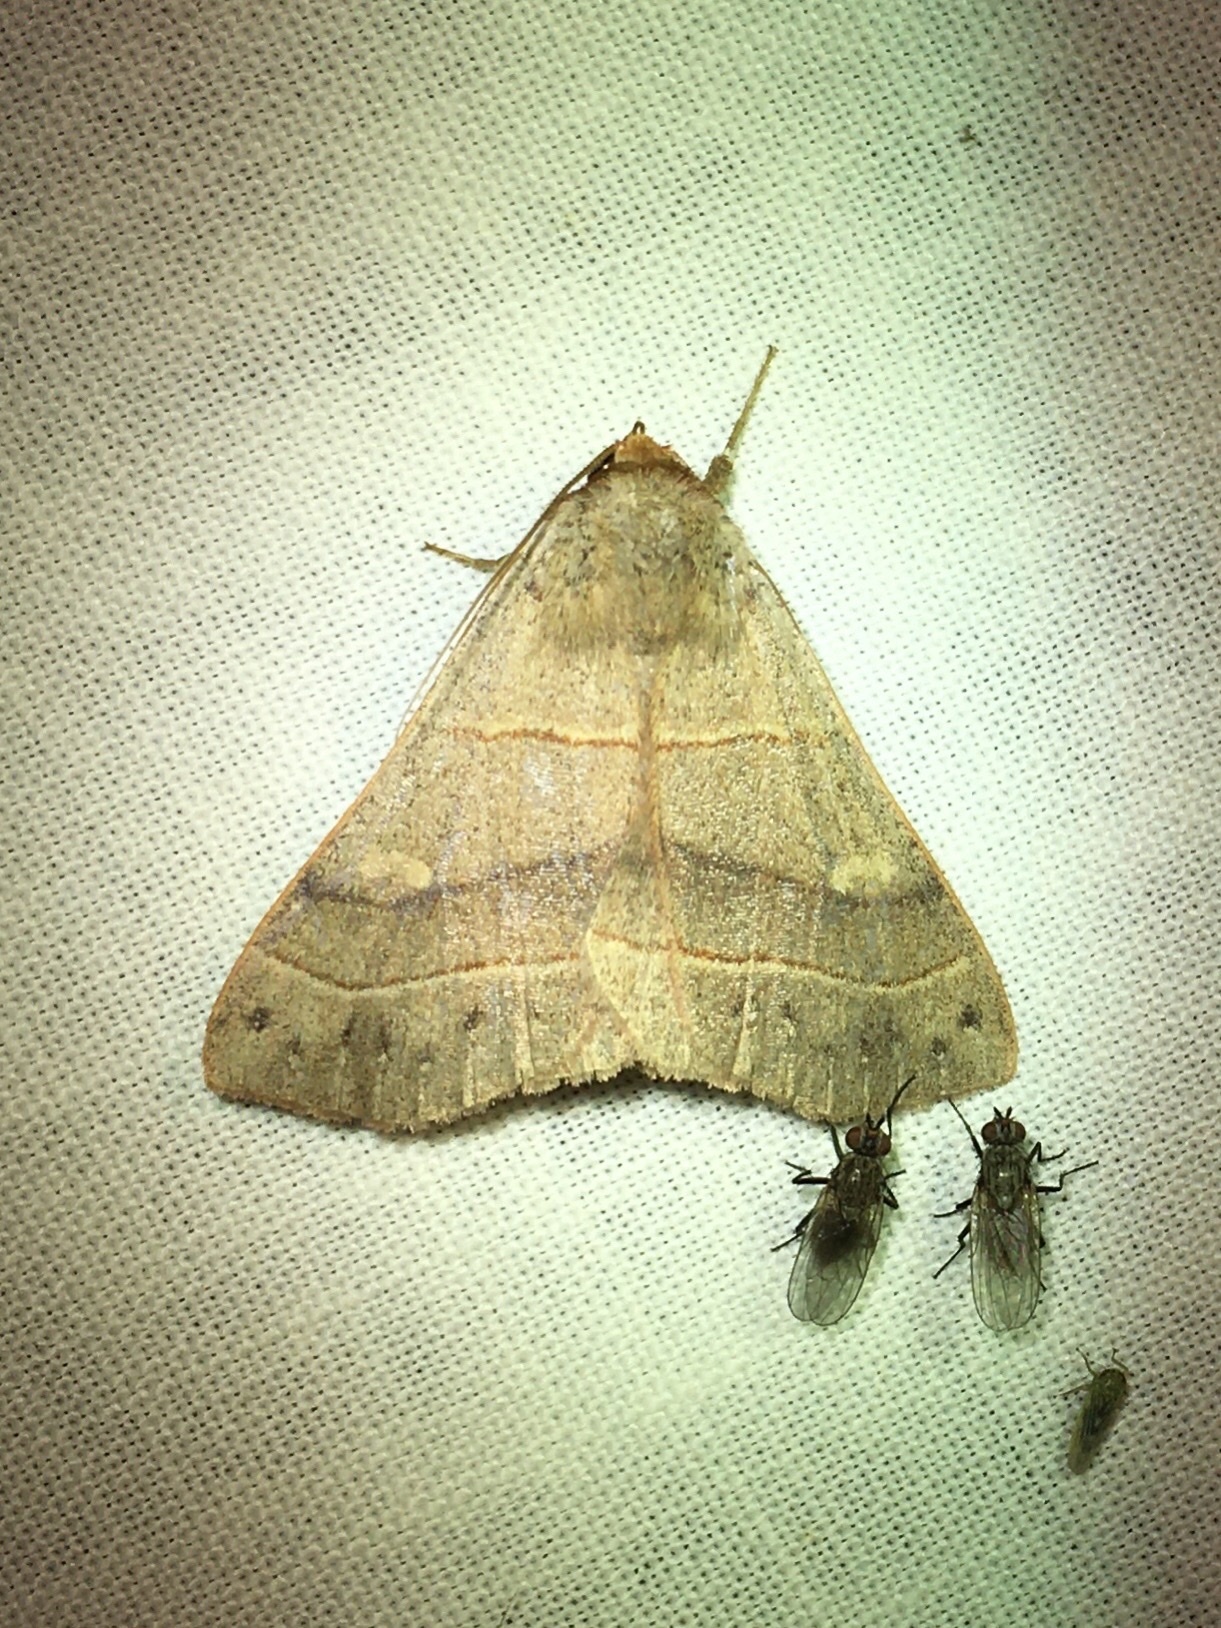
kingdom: Animalia
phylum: Arthropoda
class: Insecta
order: Lepidoptera
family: Erebidae
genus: Panopoda
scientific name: Panopoda rufimargo
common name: Red-lined panopoda moth
